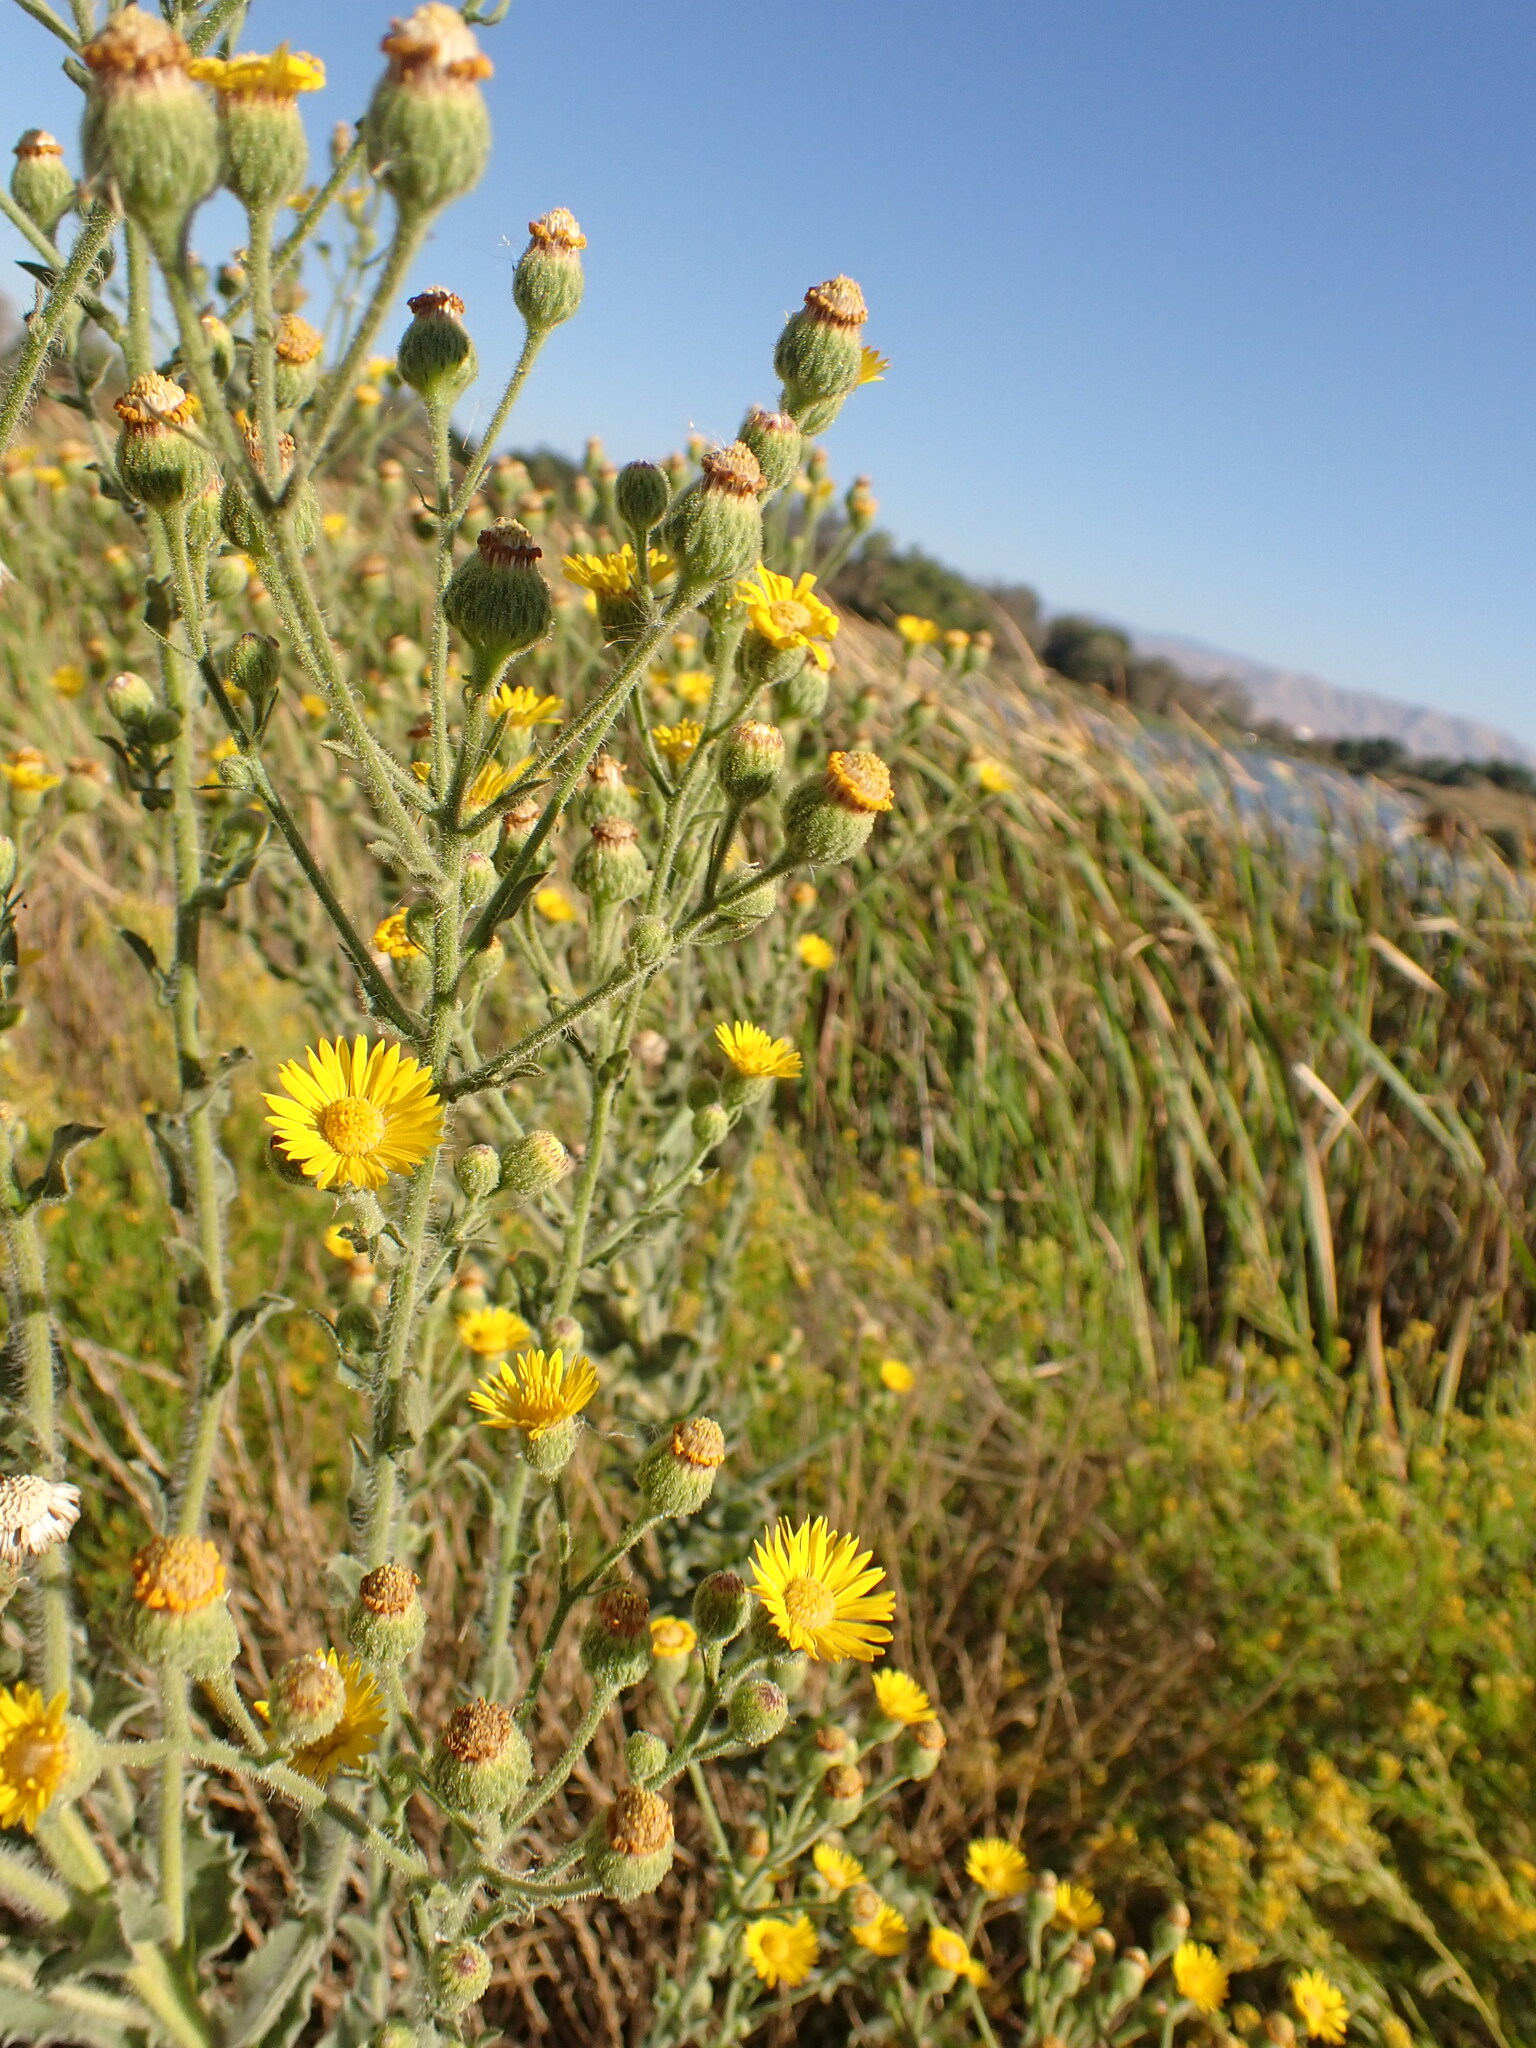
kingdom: Plantae
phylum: Tracheophyta
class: Magnoliopsida
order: Asterales
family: Asteraceae
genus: Heterotheca
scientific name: Heterotheca grandiflora
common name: Telegraphweed
